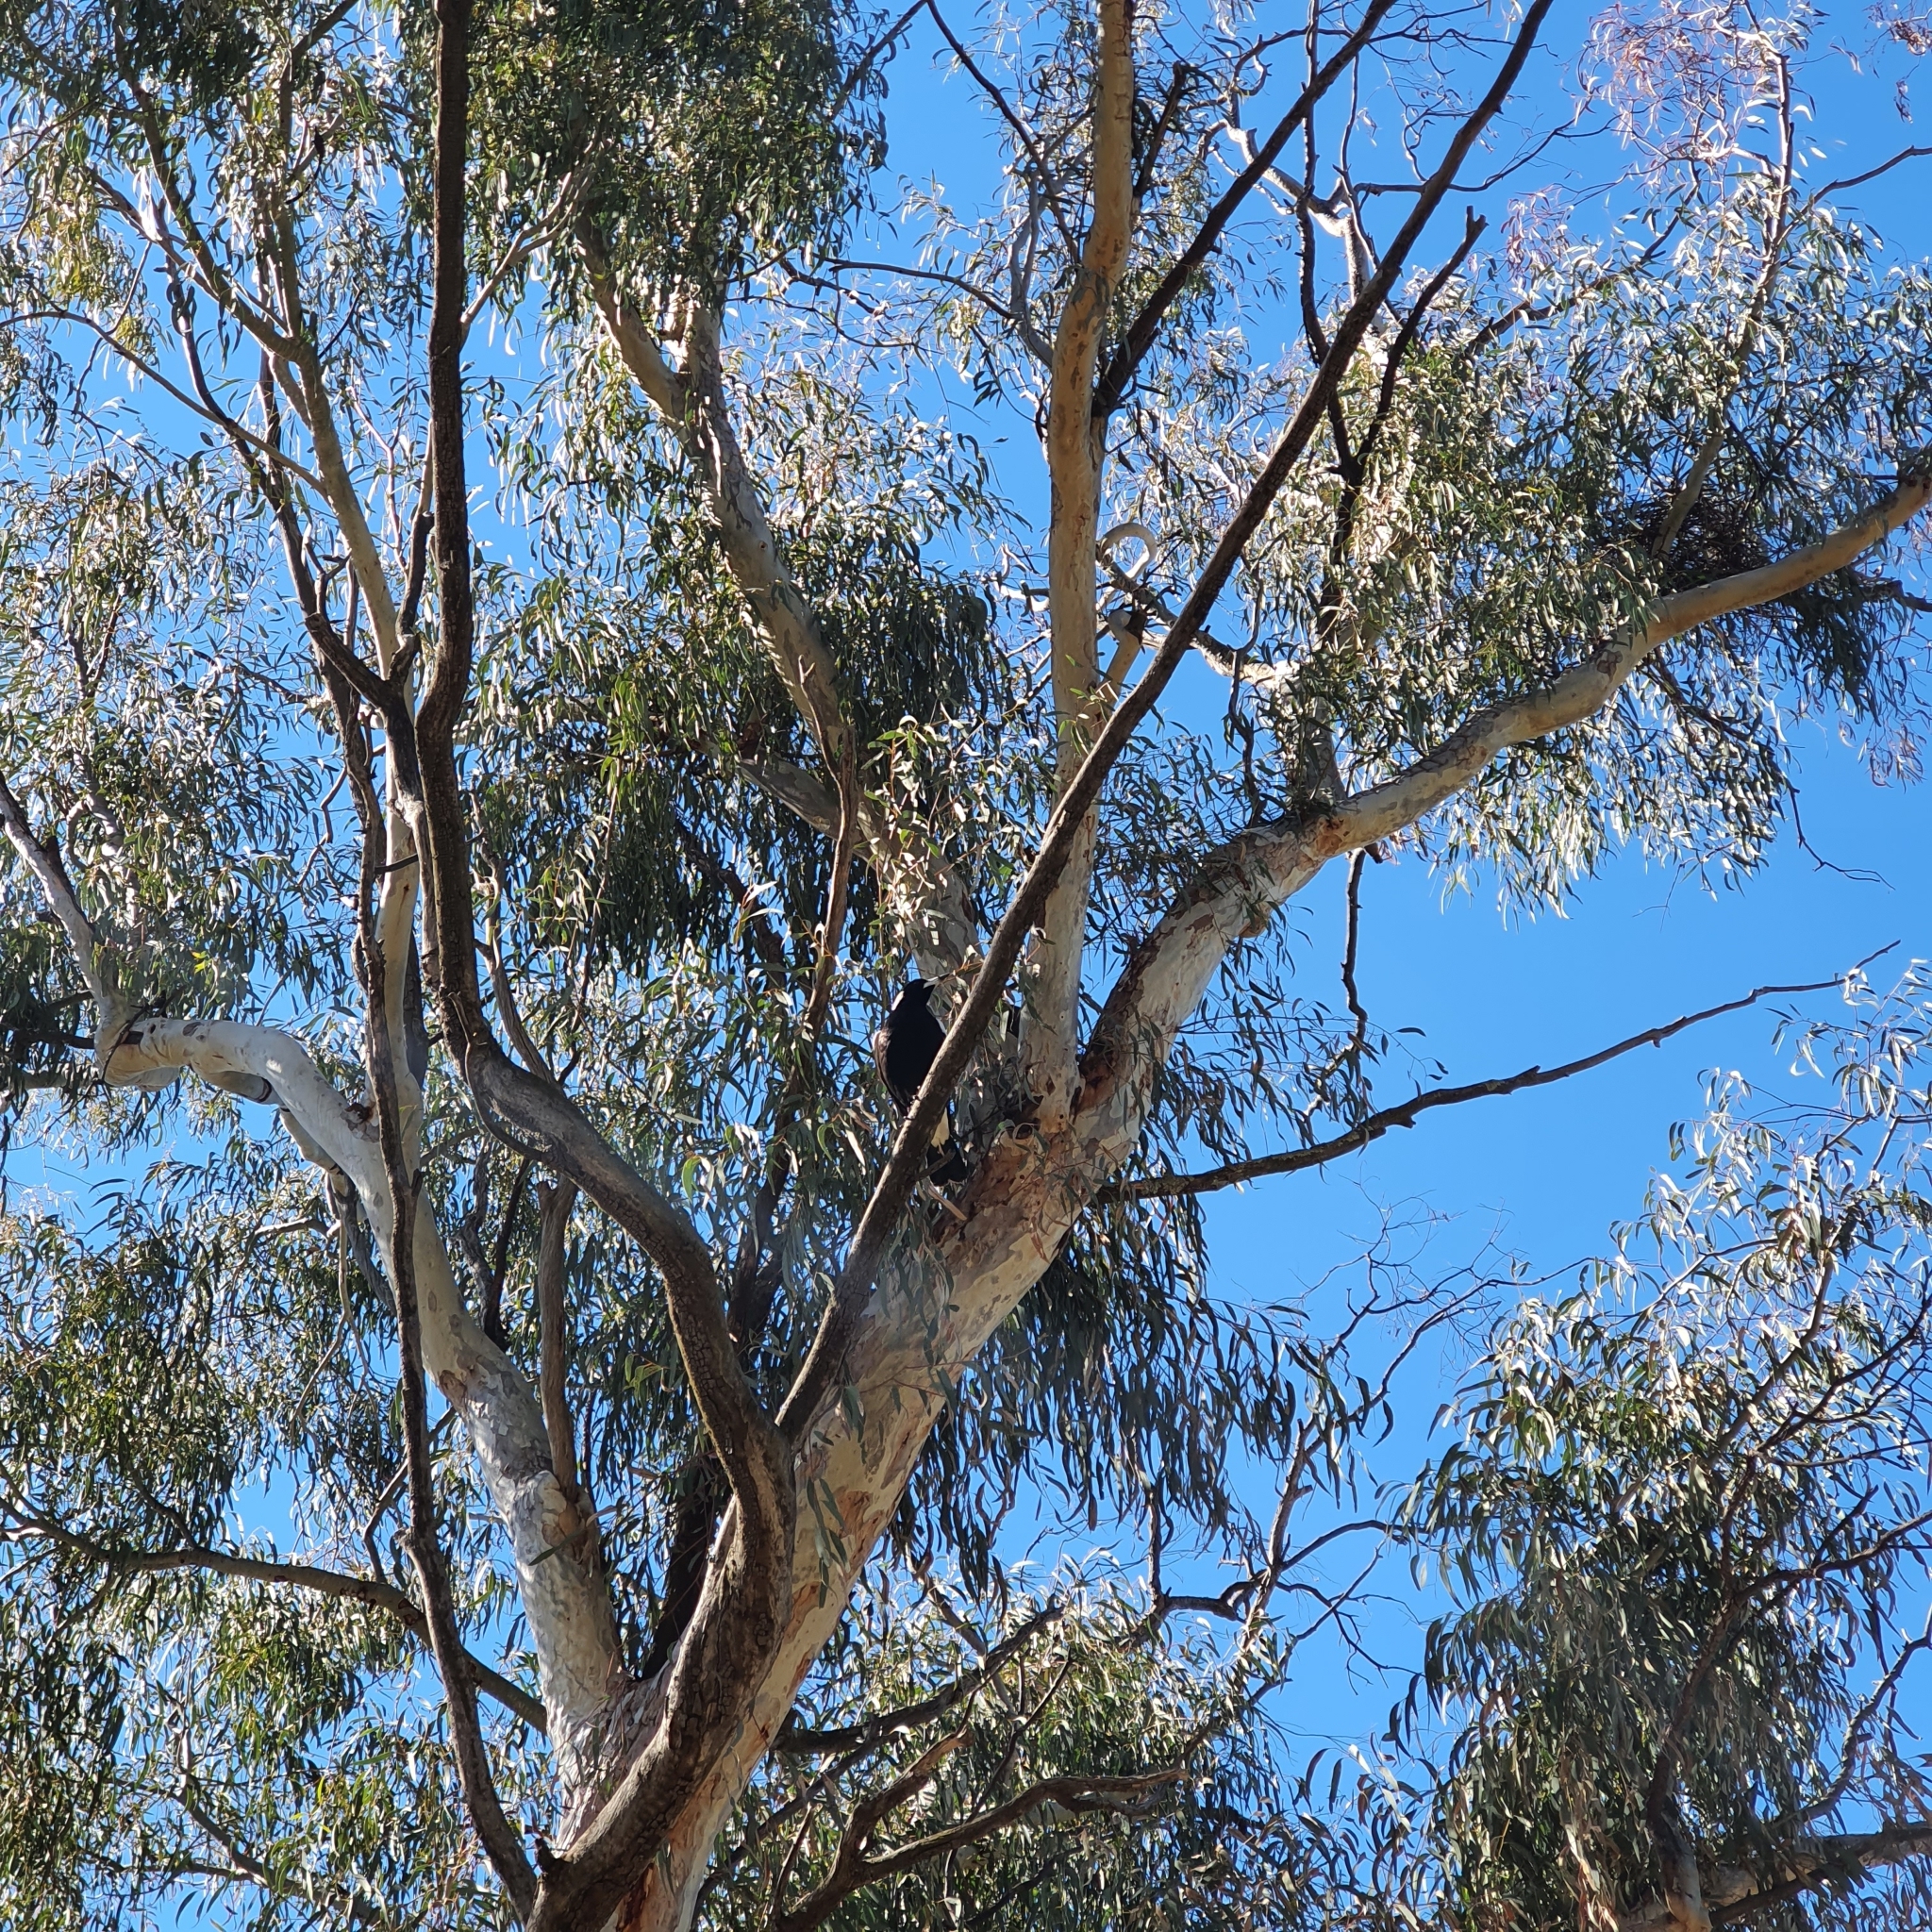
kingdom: Animalia
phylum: Chordata
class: Aves
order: Passeriformes
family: Cracticidae
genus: Gymnorhina
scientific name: Gymnorhina tibicen
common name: Australian magpie
